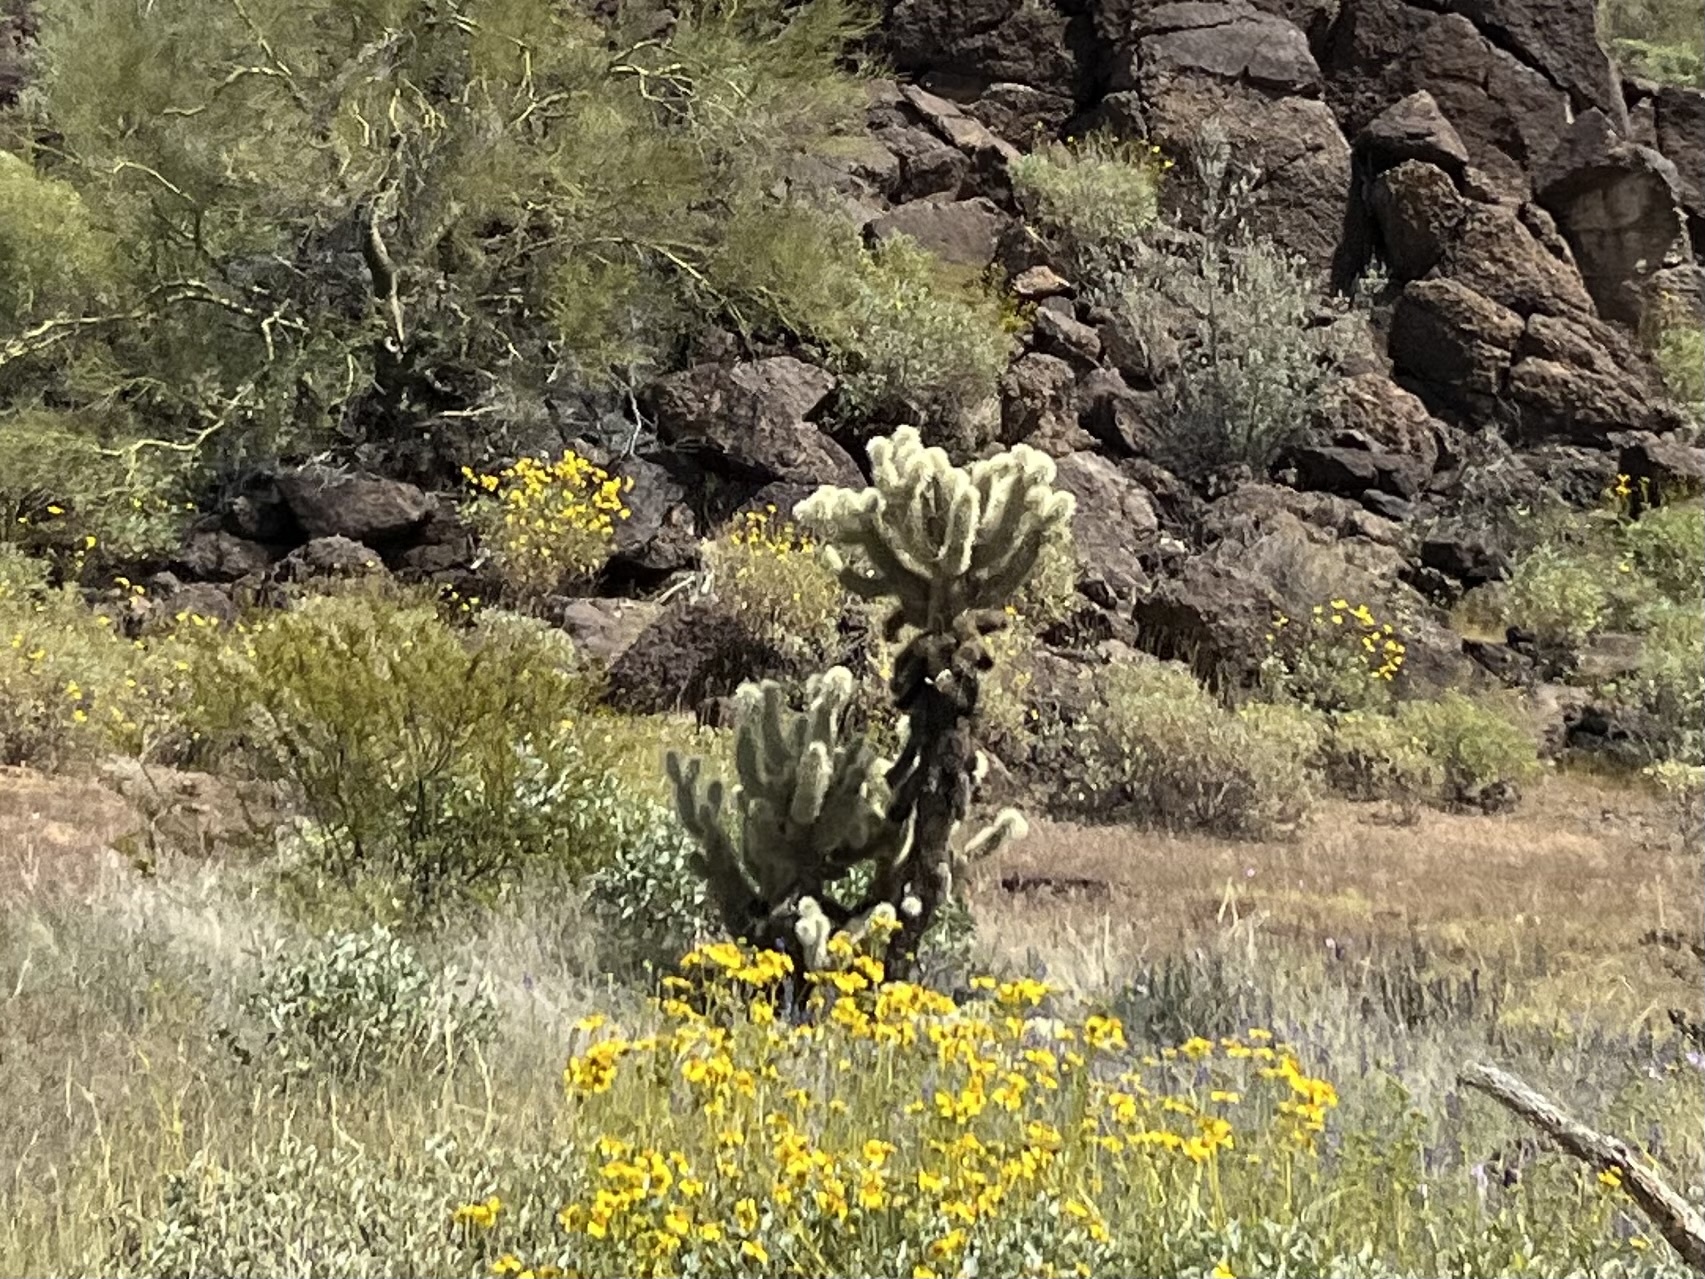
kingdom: Plantae
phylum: Tracheophyta
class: Magnoliopsida
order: Caryophyllales
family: Cactaceae
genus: Cylindropuntia
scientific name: Cylindropuntia fosbergii
